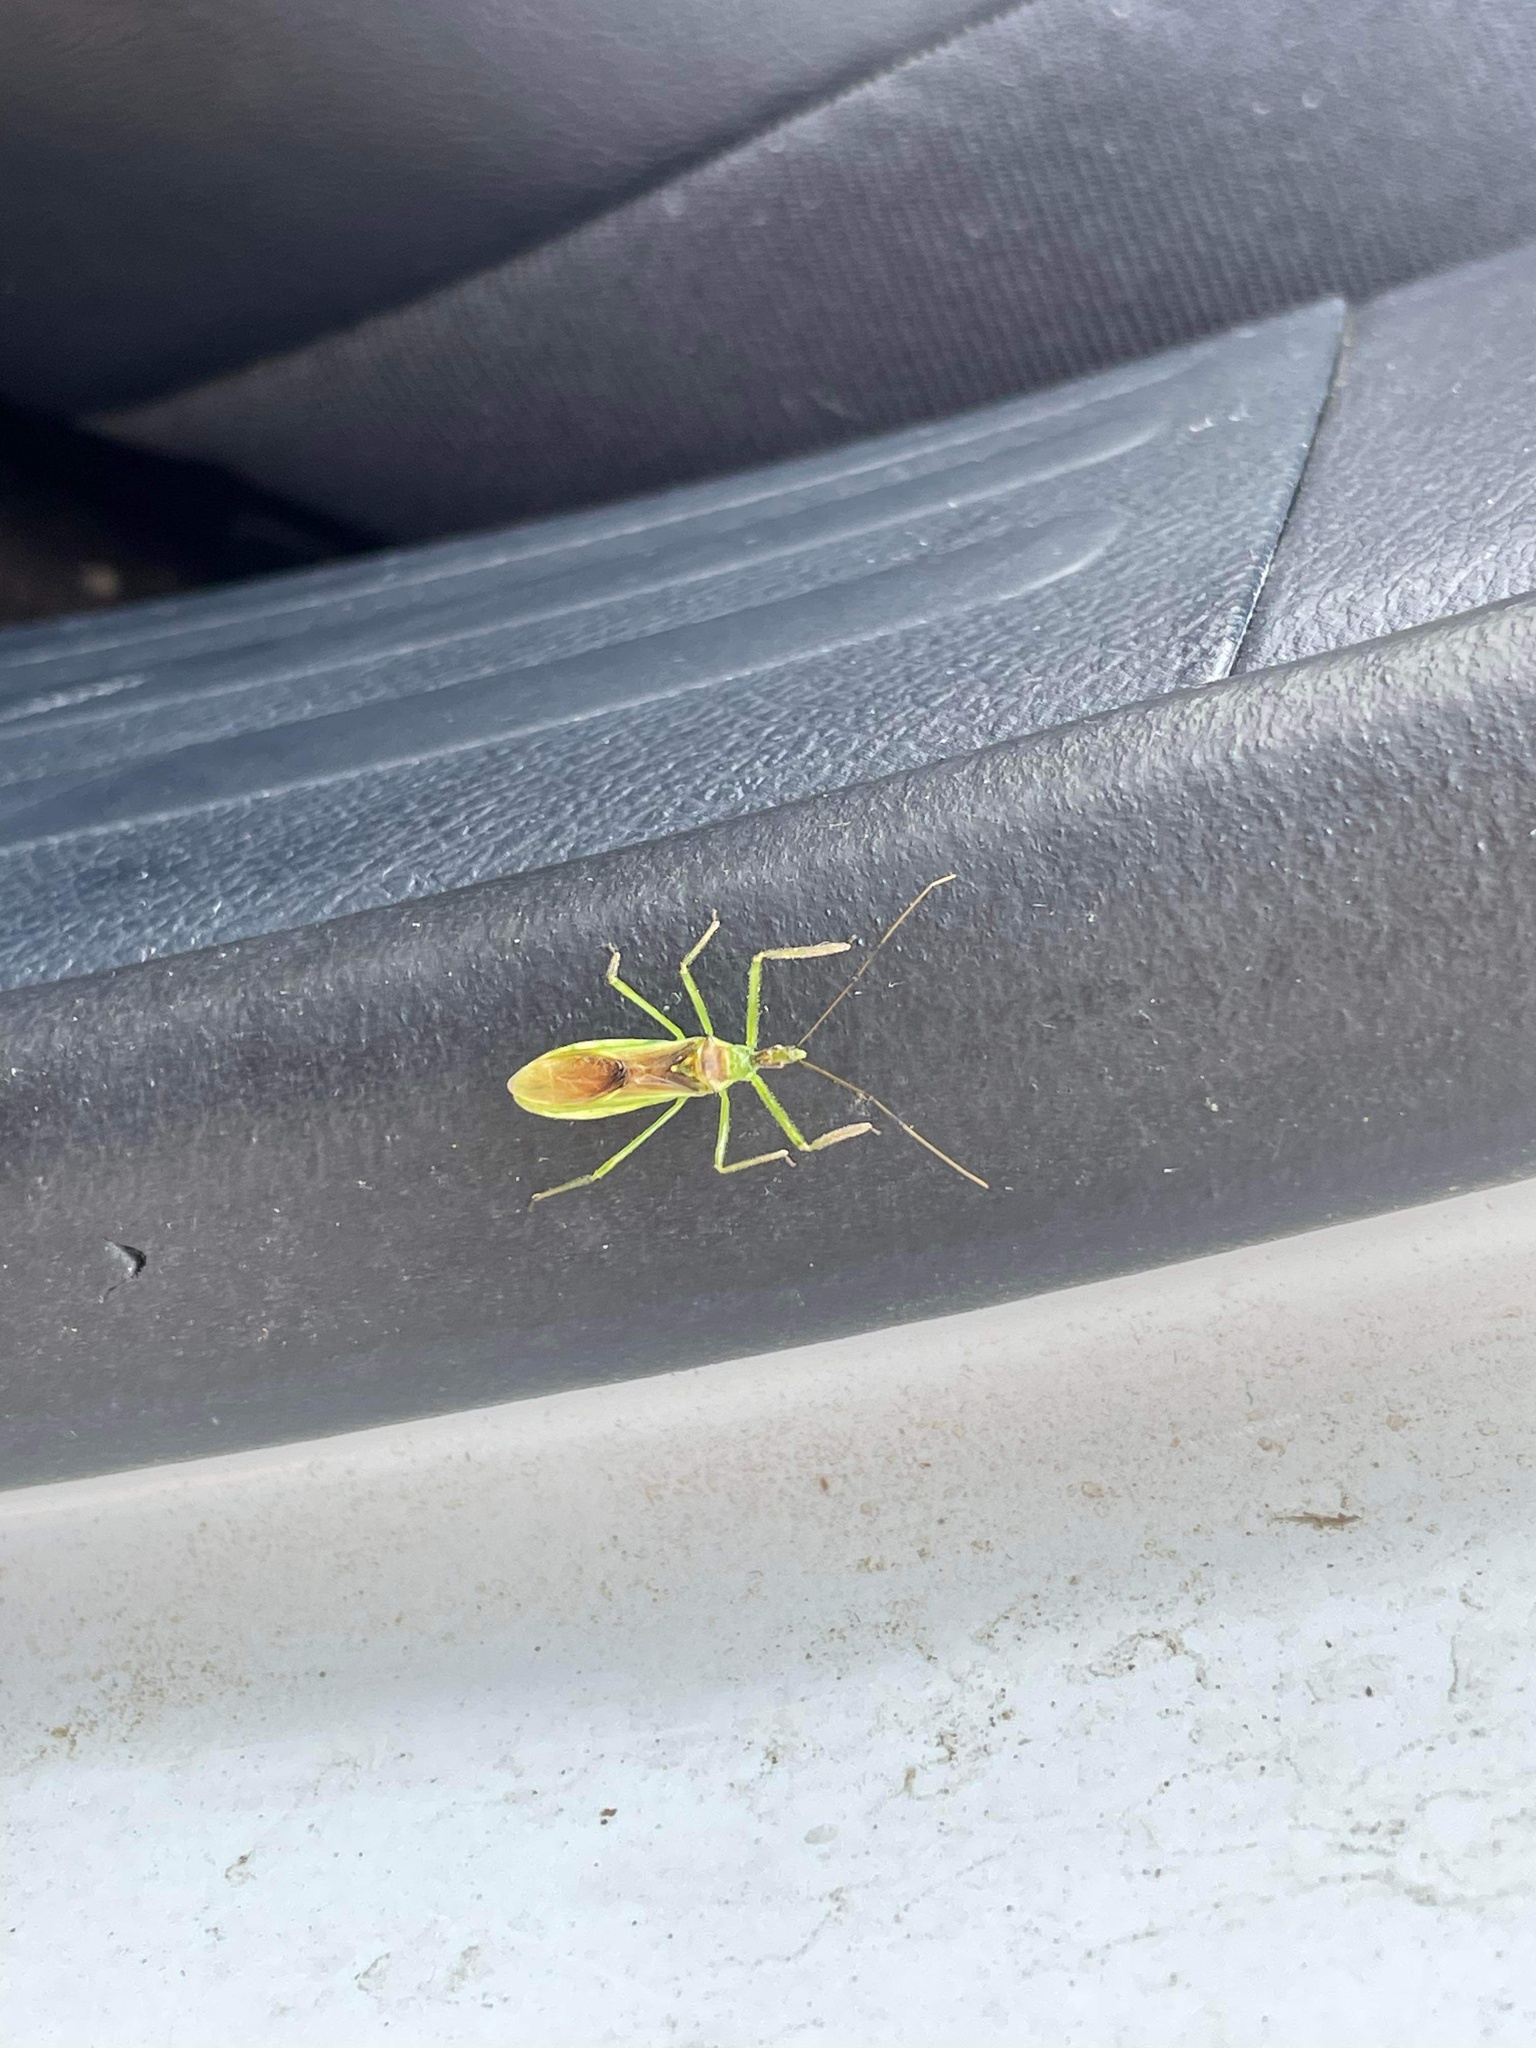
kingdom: Animalia
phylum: Arthropoda
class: Insecta
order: Hemiptera
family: Reduviidae
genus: Zelus
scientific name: Zelus luridus
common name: Pale green assassin bug
